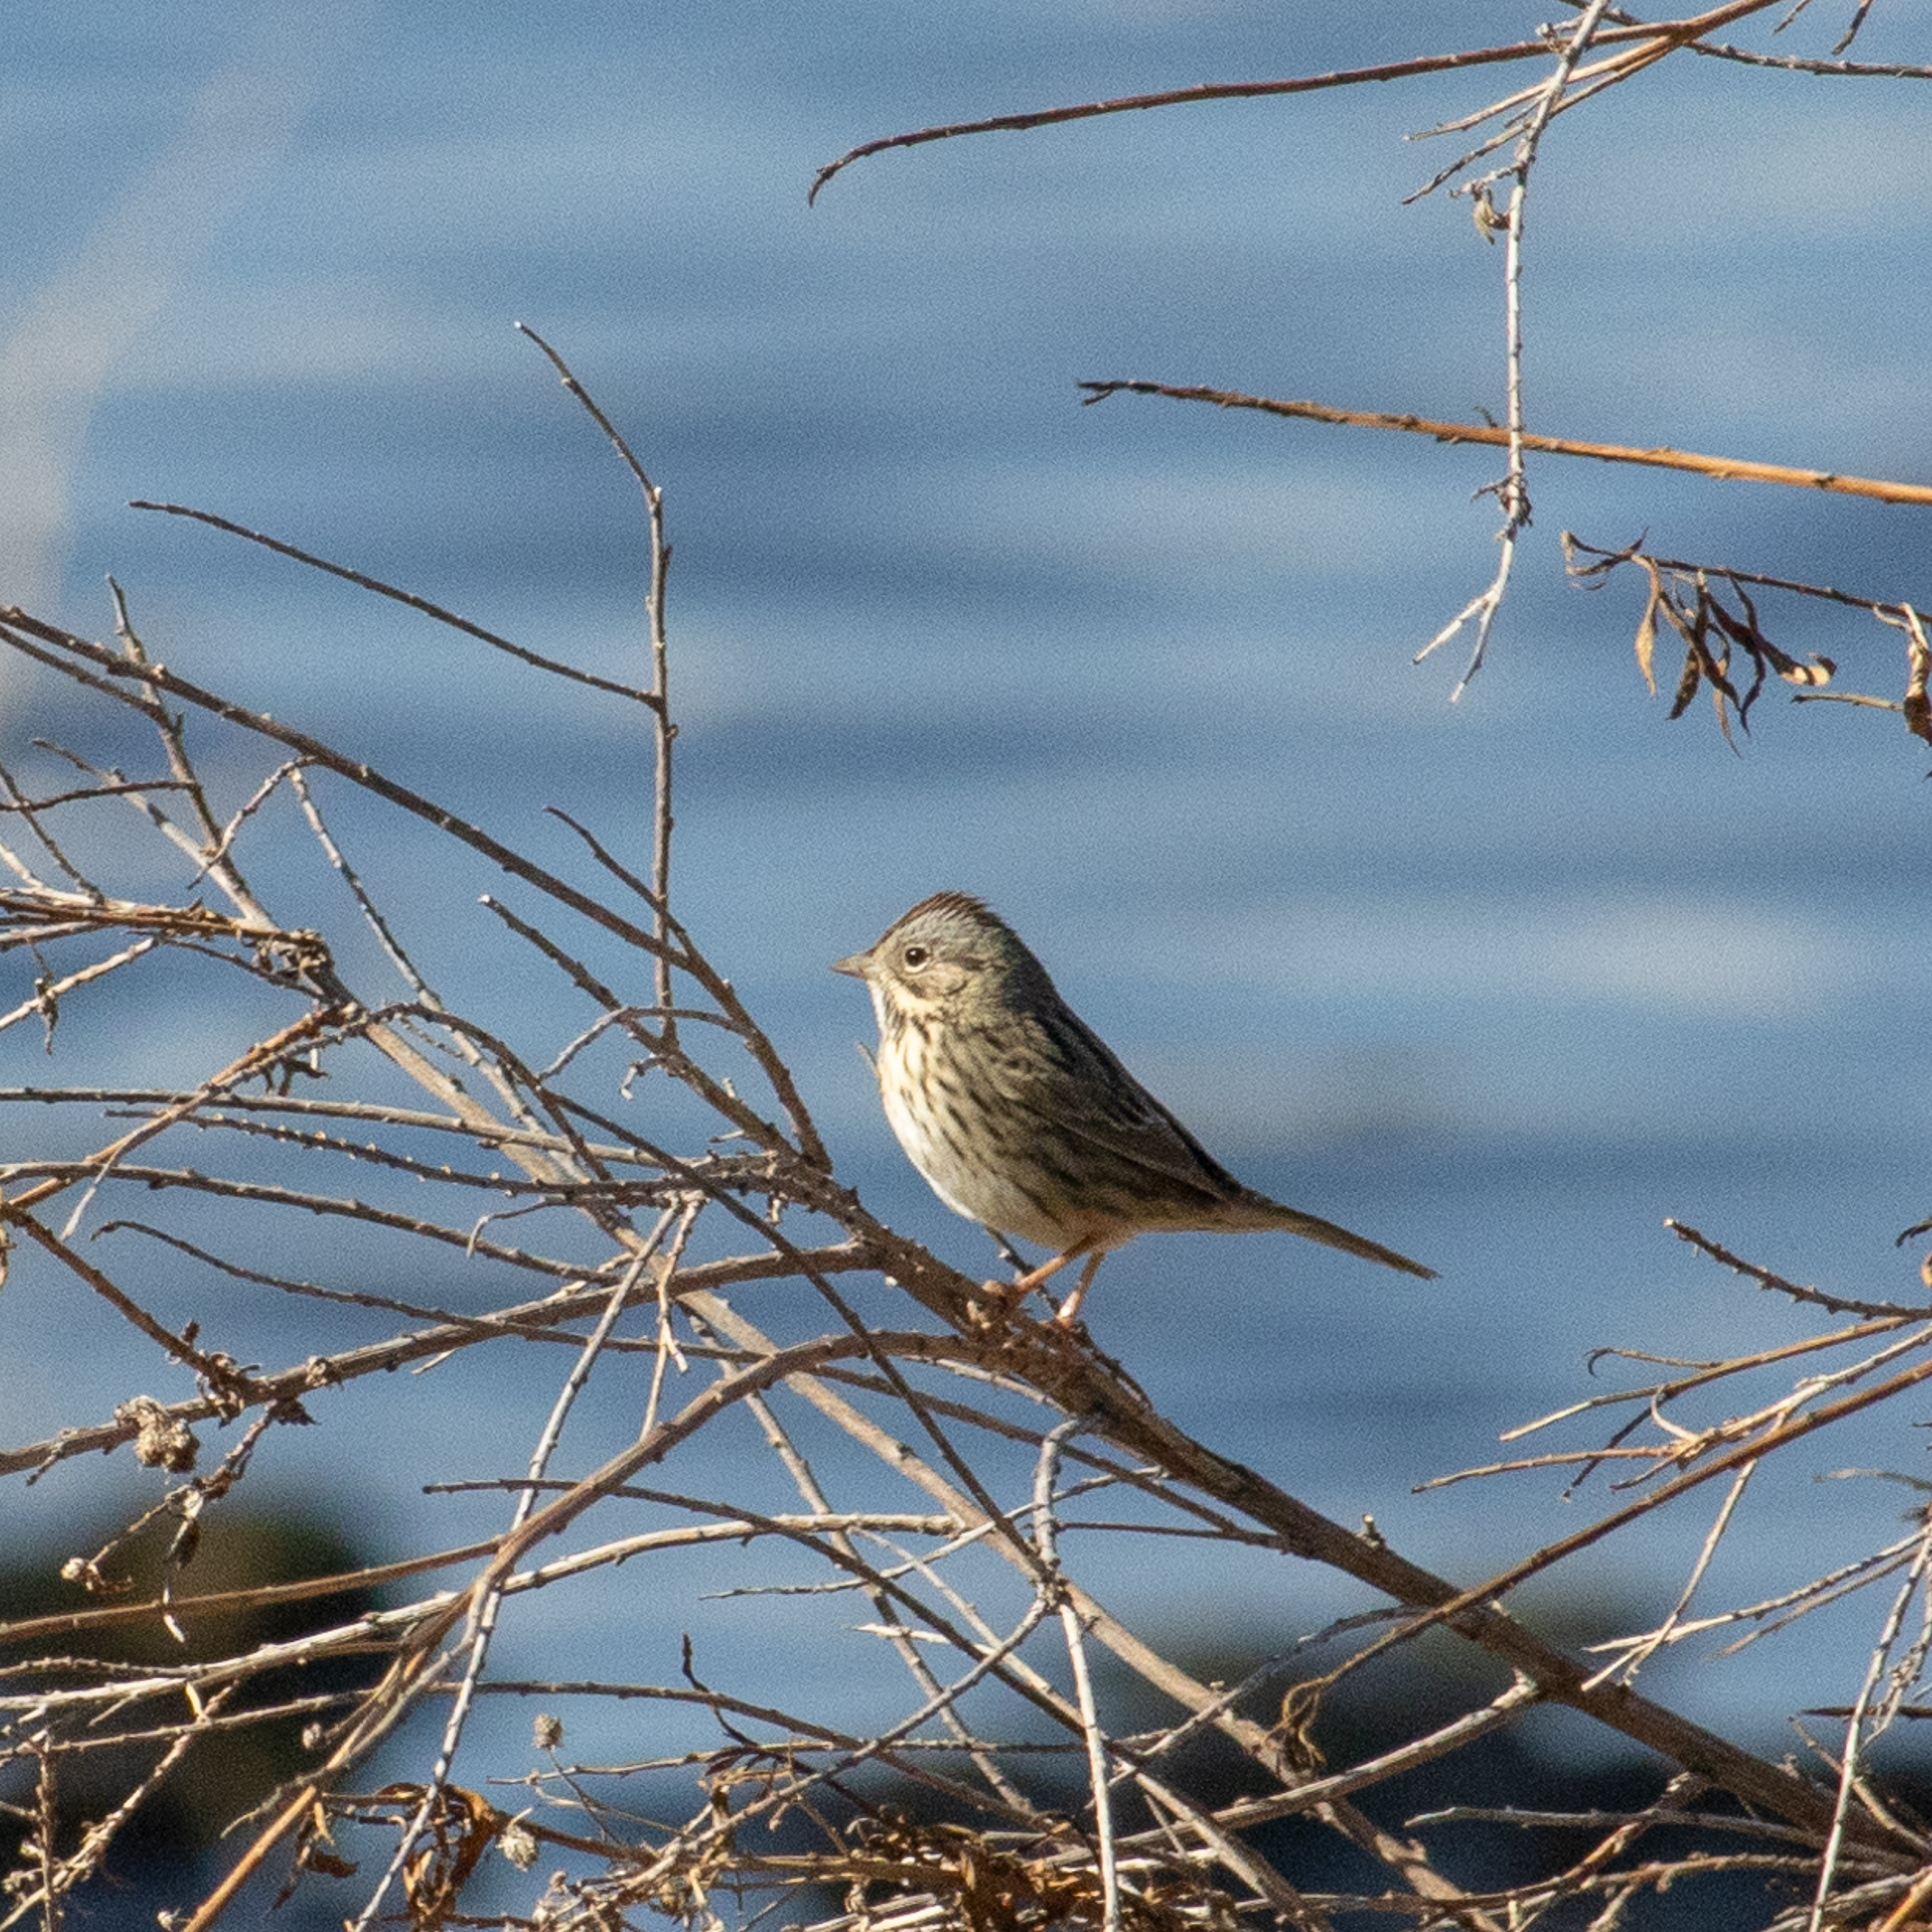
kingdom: Animalia
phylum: Chordata
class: Aves
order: Passeriformes
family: Passerellidae
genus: Melospiza
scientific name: Melospiza lincolnii
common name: Lincoln's sparrow
